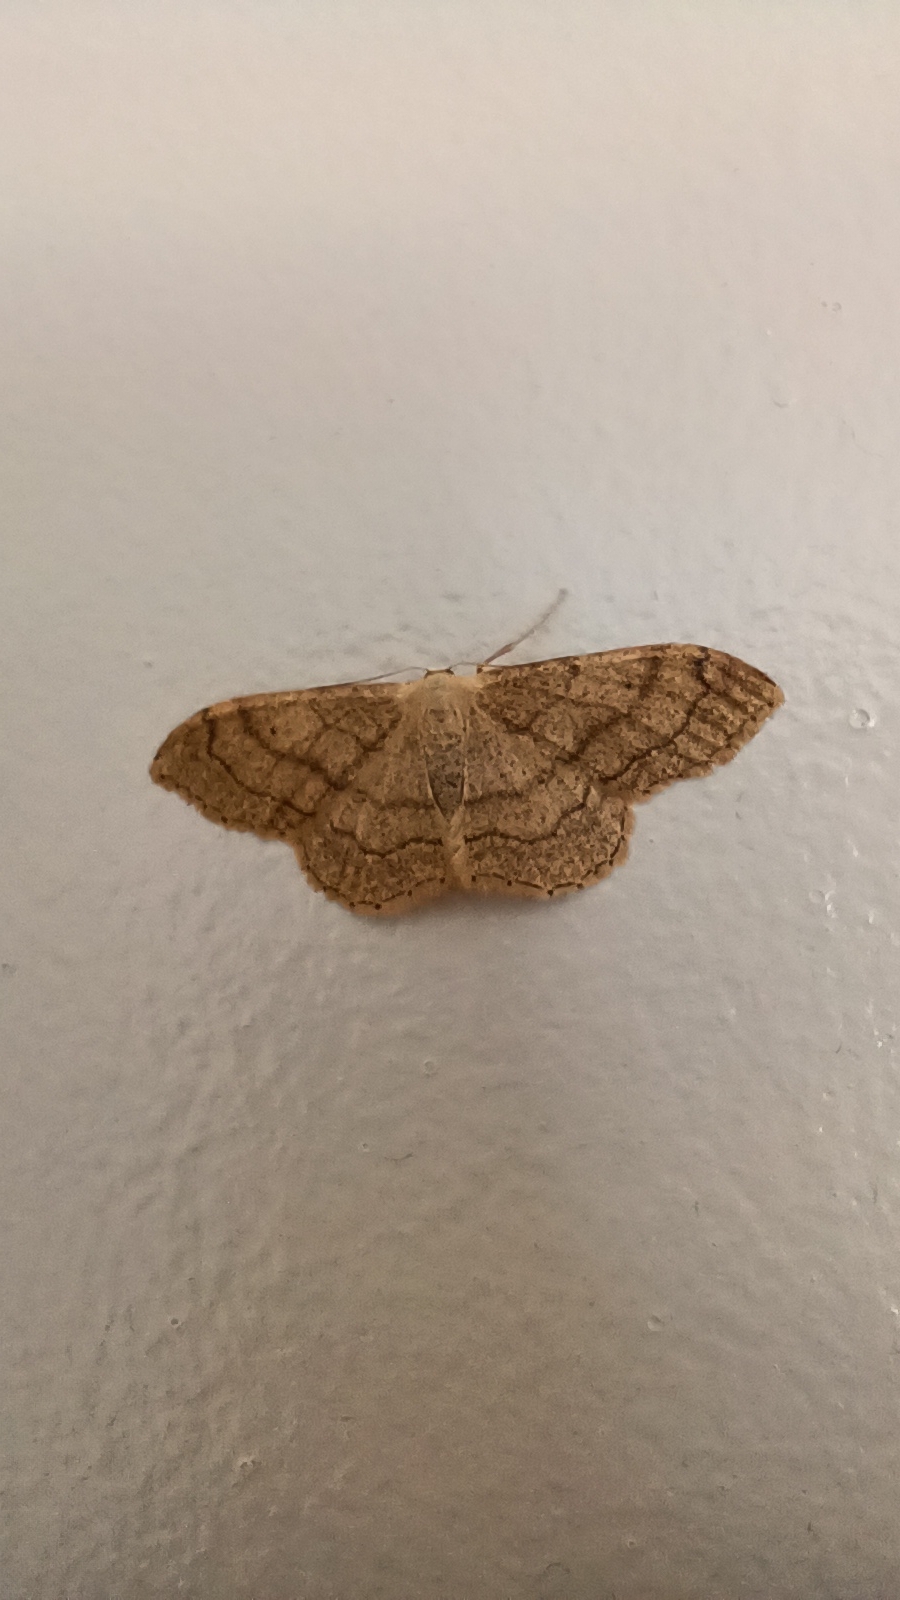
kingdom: Animalia
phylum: Arthropoda
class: Insecta
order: Lepidoptera
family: Geometridae
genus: Idaea
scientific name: Idaea aversata
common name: Riband wave
